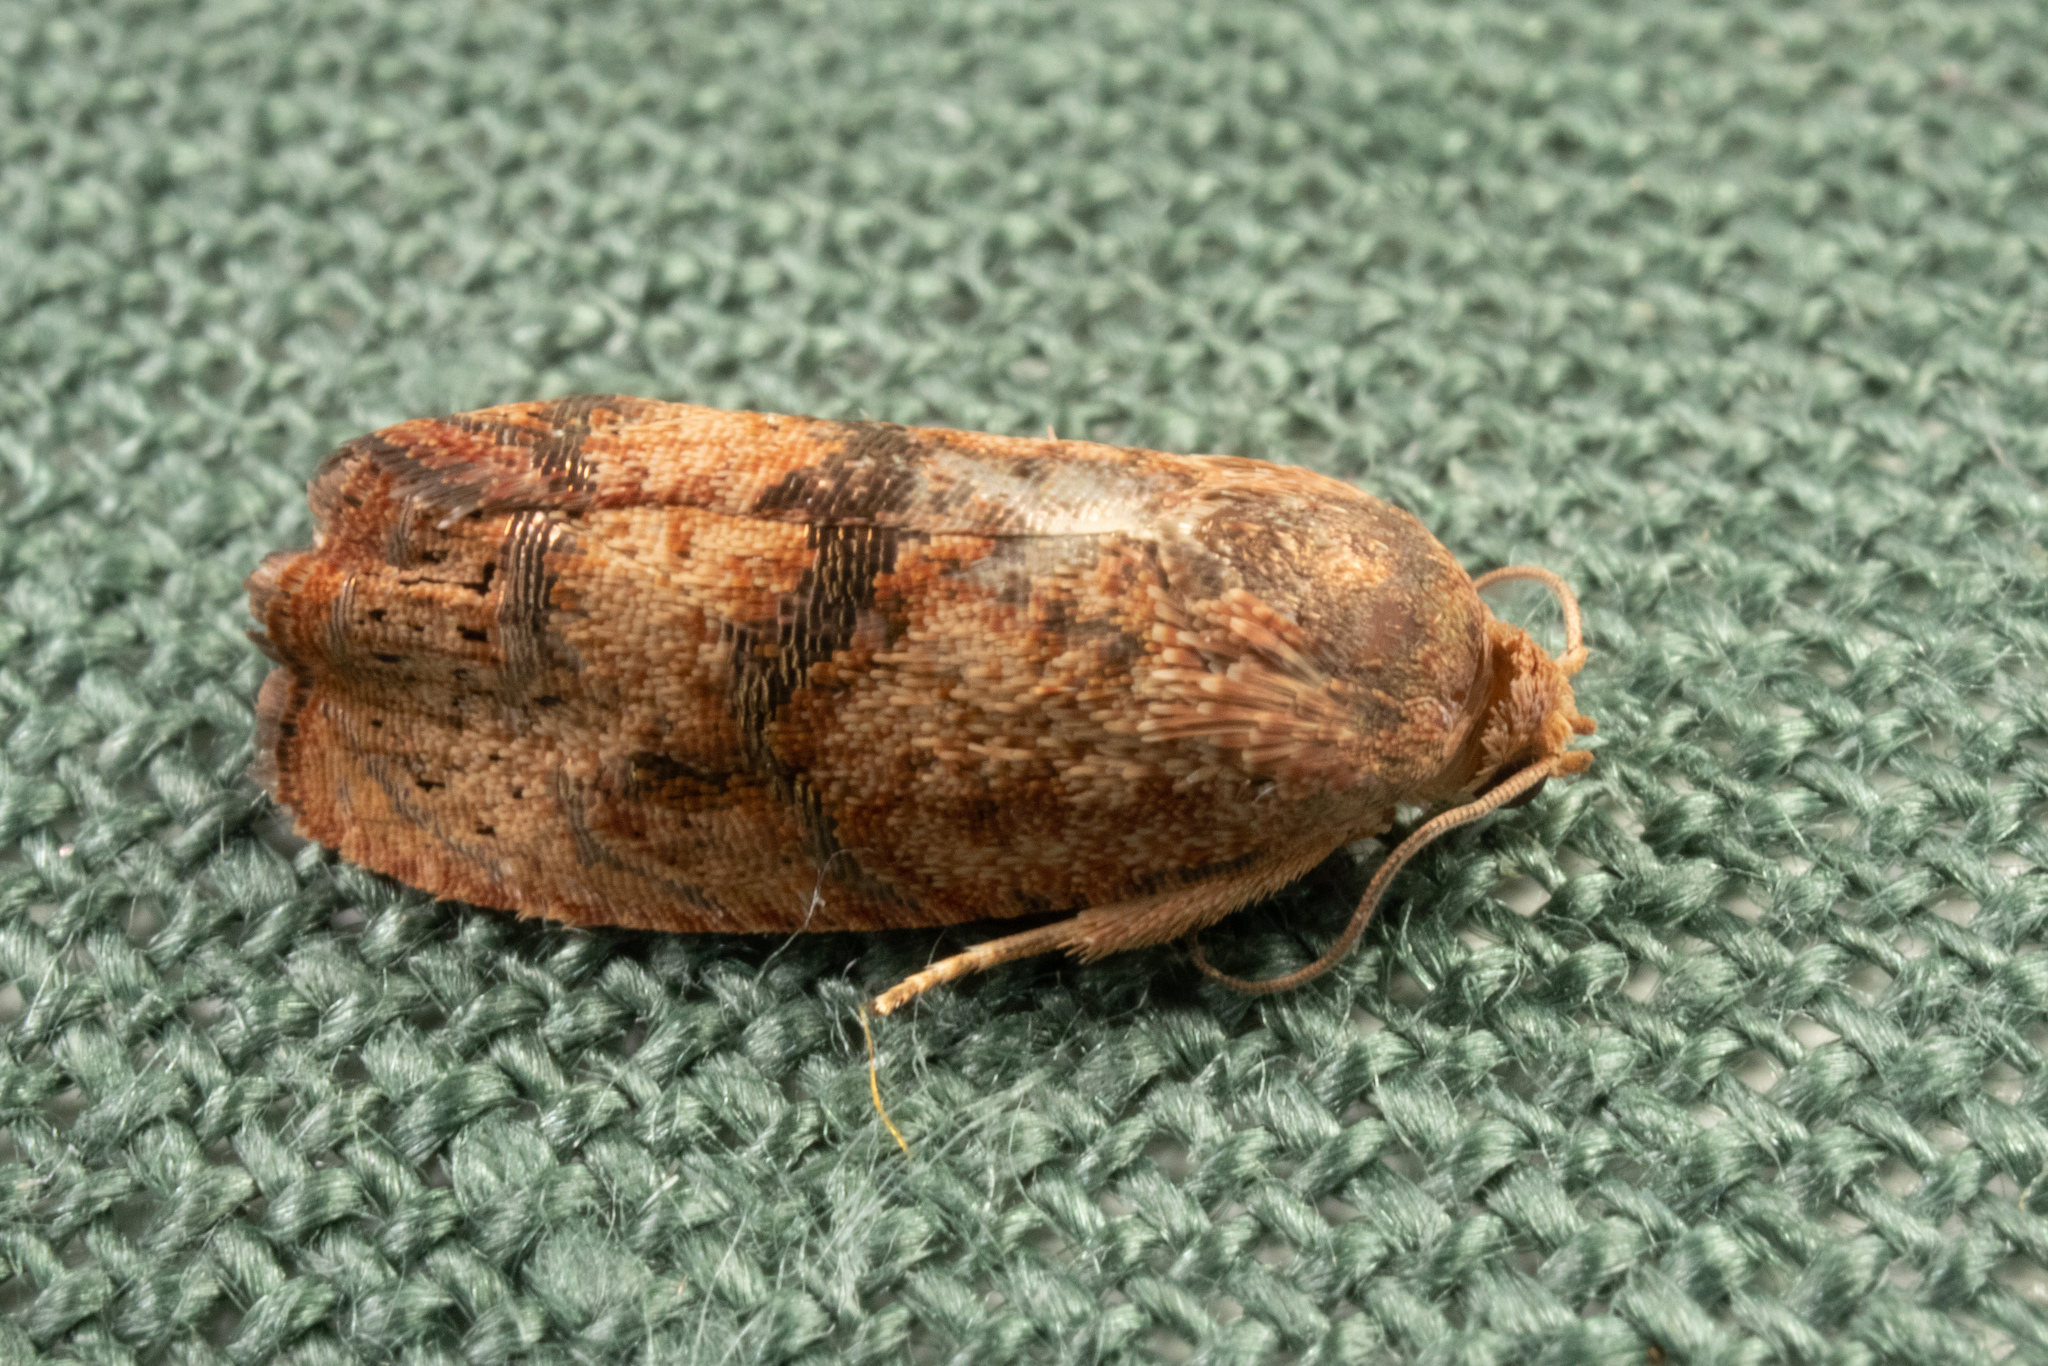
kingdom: Animalia
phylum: Arthropoda
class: Insecta
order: Lepidoptera
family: Tortricidae
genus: Cydia
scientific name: Cydia latiferreana
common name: Filbertworm moth
